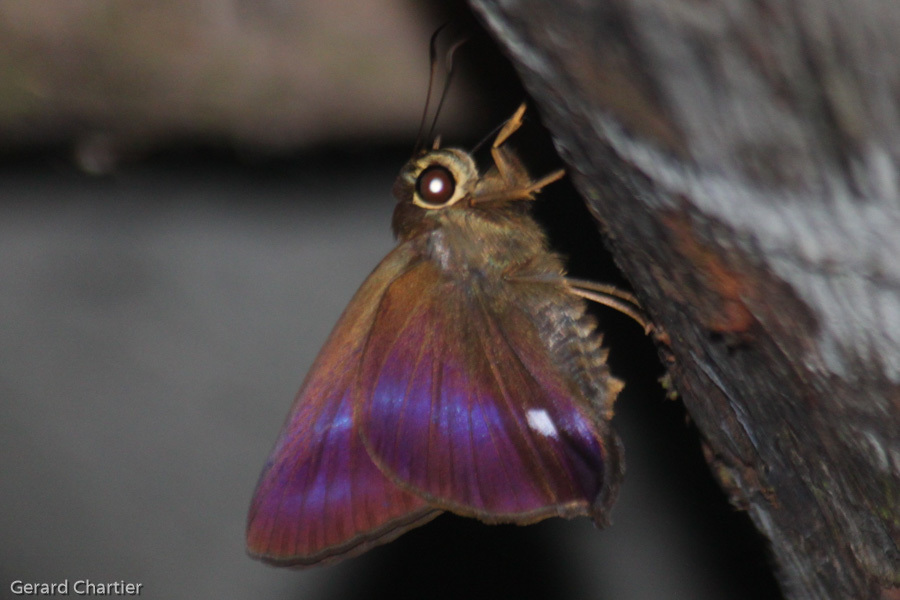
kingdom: Animalia
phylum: Arthropoda
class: Insecta
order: Lepidoptera
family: Hesperiidae
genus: Hasora
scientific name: Hasora leucospila
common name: Violet awl
